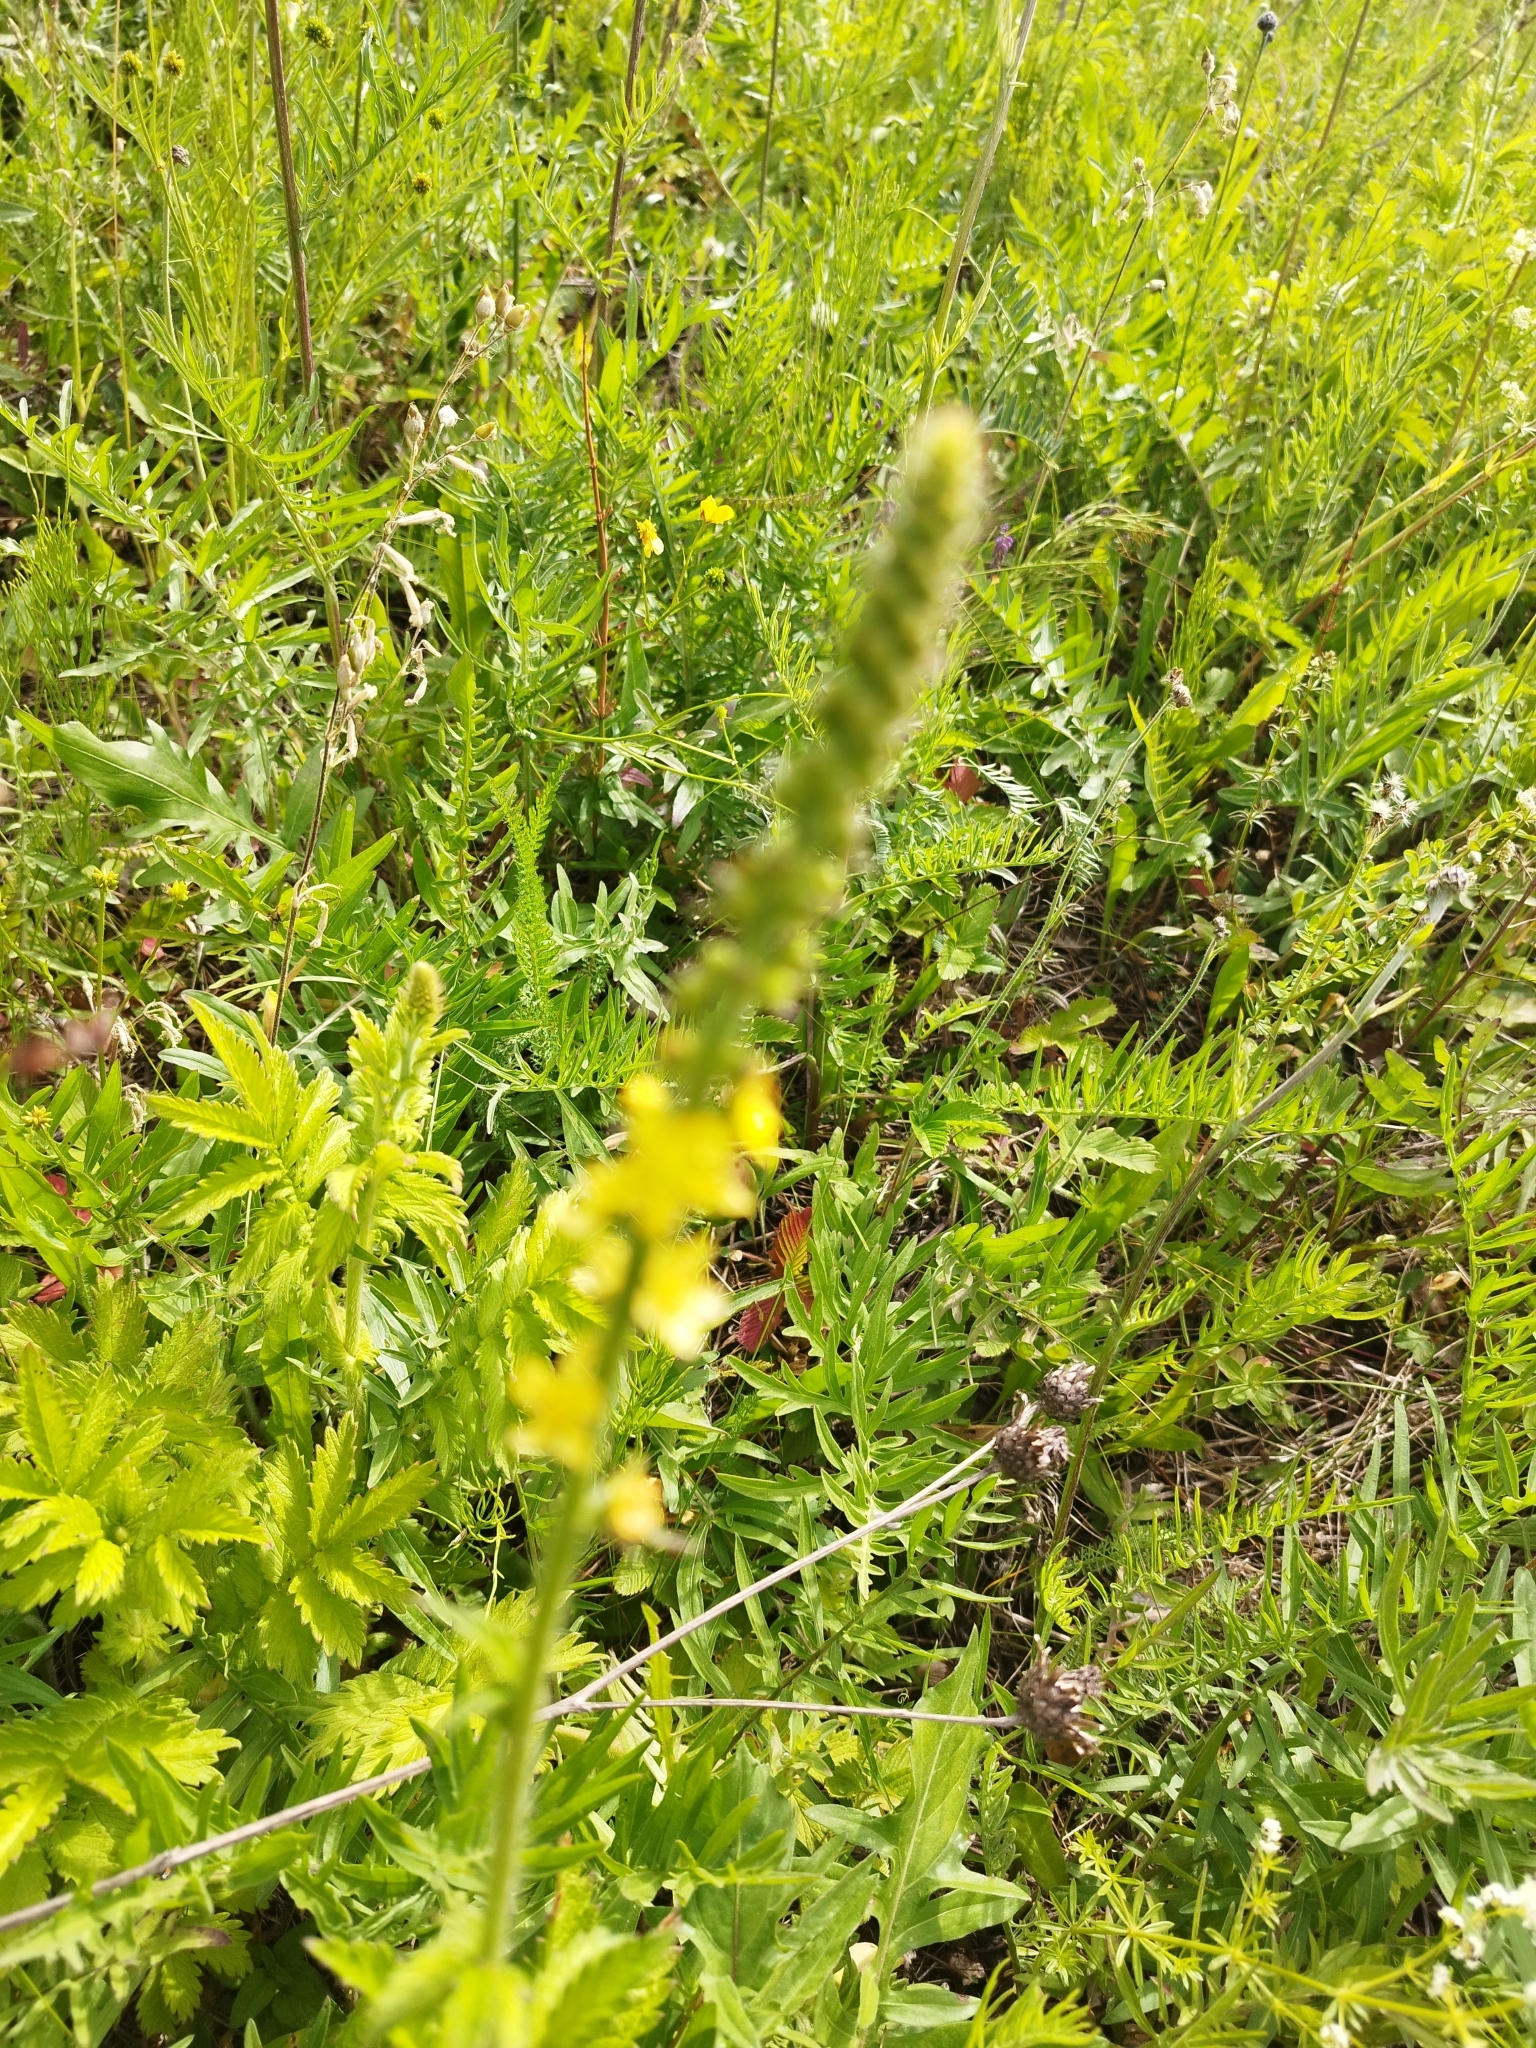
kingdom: Plantae
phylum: Tracheophyta
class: Magnoliopsida
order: Rosales
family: Rosaceae
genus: Agrimonia
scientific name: Agrimonia eupatoria
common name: Agrimony
